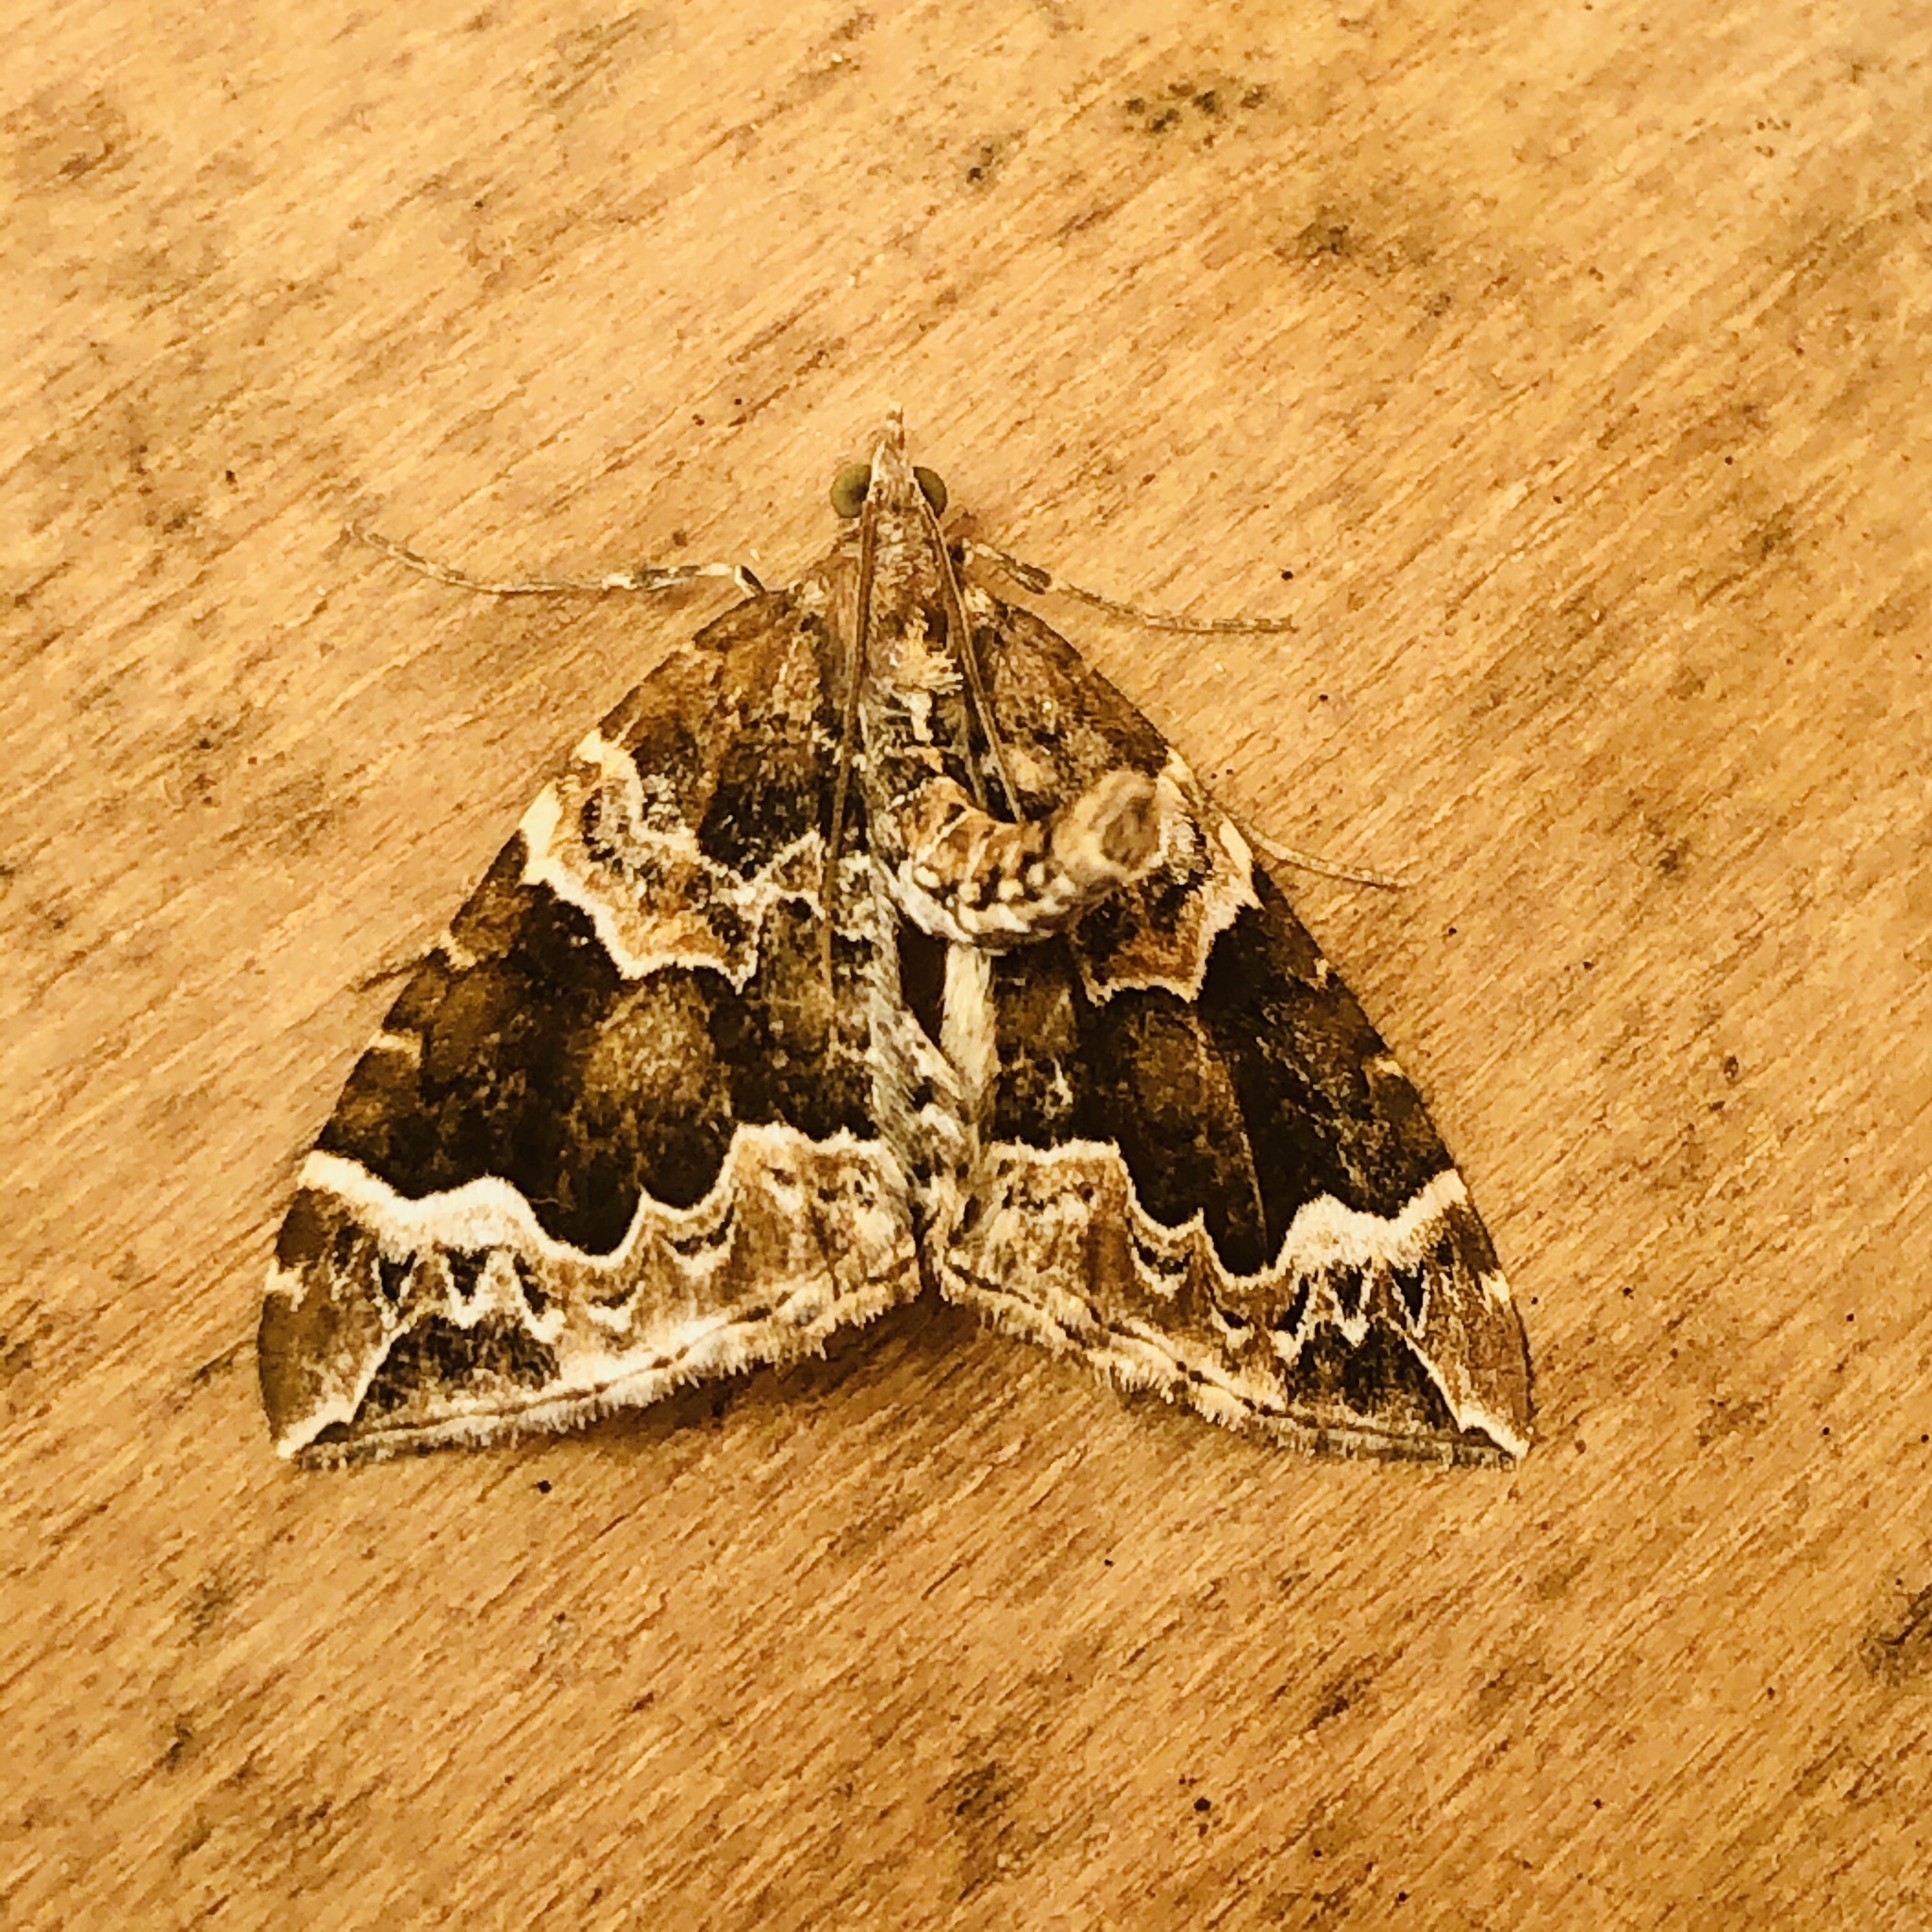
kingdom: Animalia
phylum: Arthropoda
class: Insecta
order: Lepidoptera
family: Geometridae
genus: Eulithis
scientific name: Eulithis prunata
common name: Phoenix
